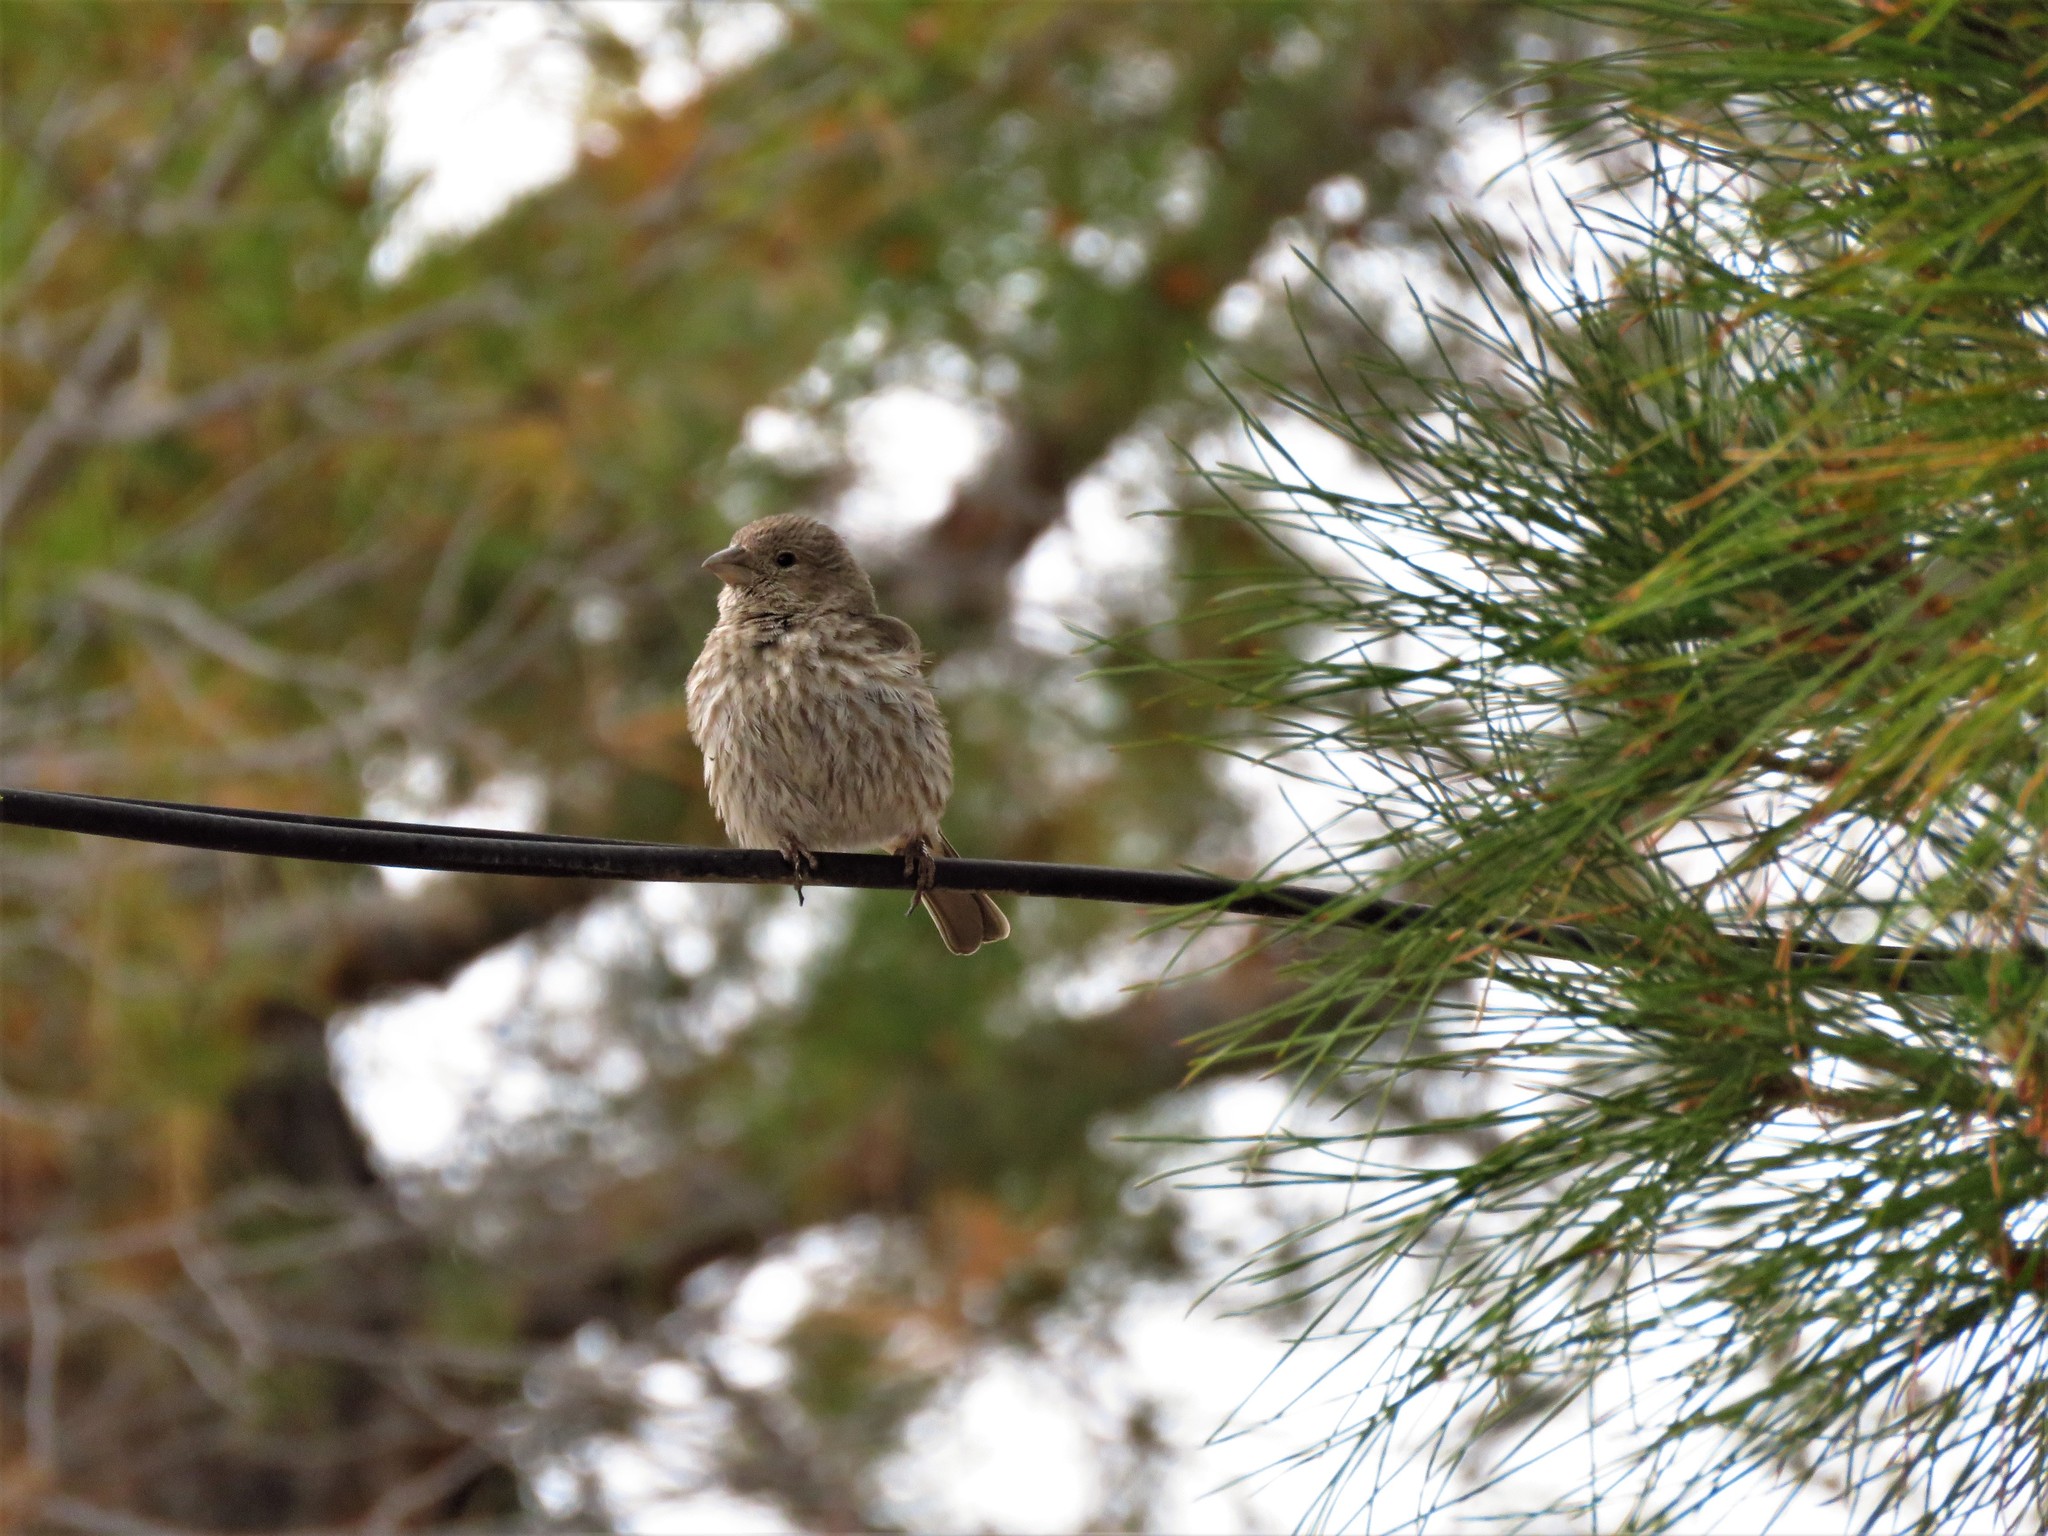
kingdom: Animalia
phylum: Chordata
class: Aves
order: Passeriformes
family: Fringillidae
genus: Haemorhous
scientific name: Haemorhous mexicanus
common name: House finch
